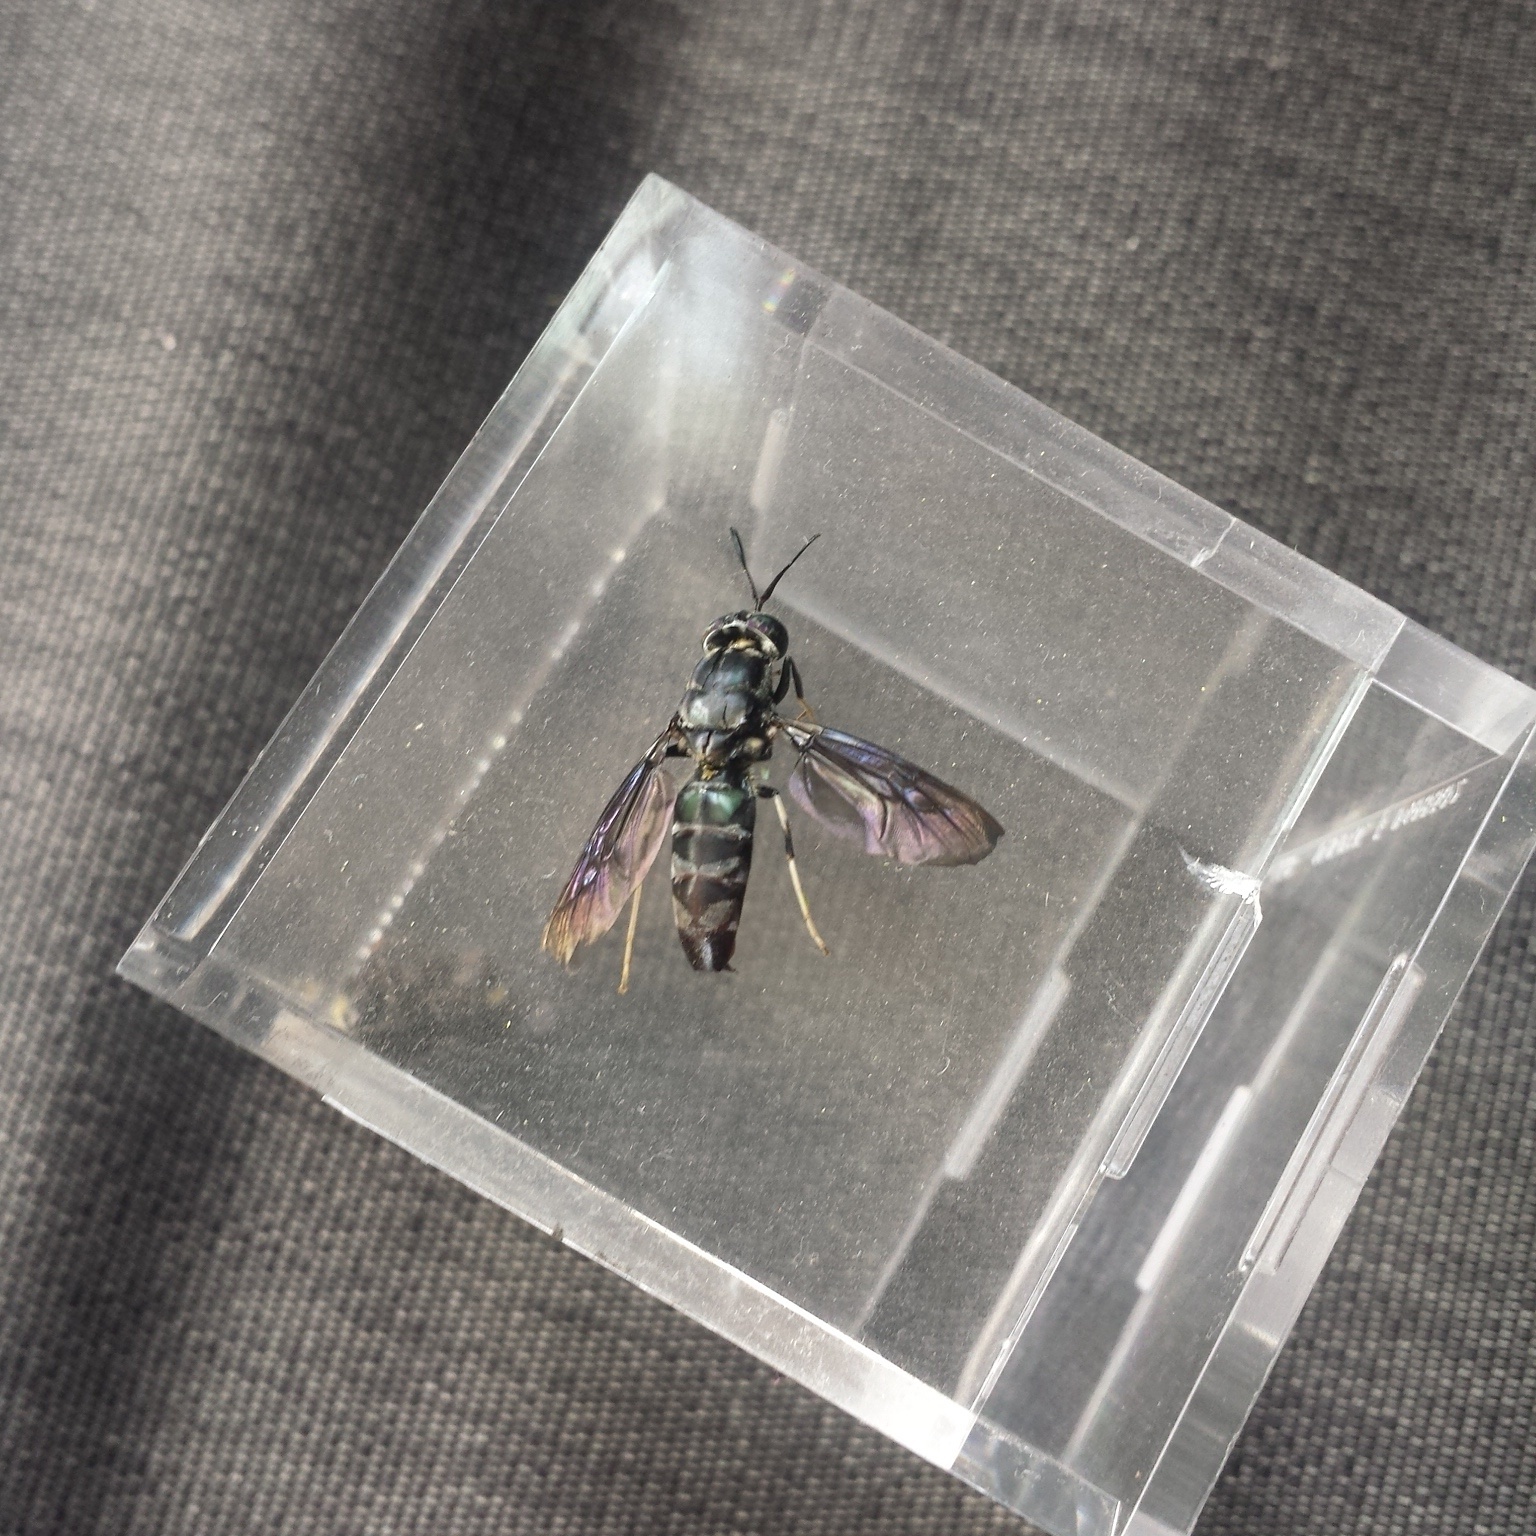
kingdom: Animalia
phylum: Arthropoda
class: Insecta
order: Diptera
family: Stratiomyidae
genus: Hermetia
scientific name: Hermetia illucens
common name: Black soldier fly
